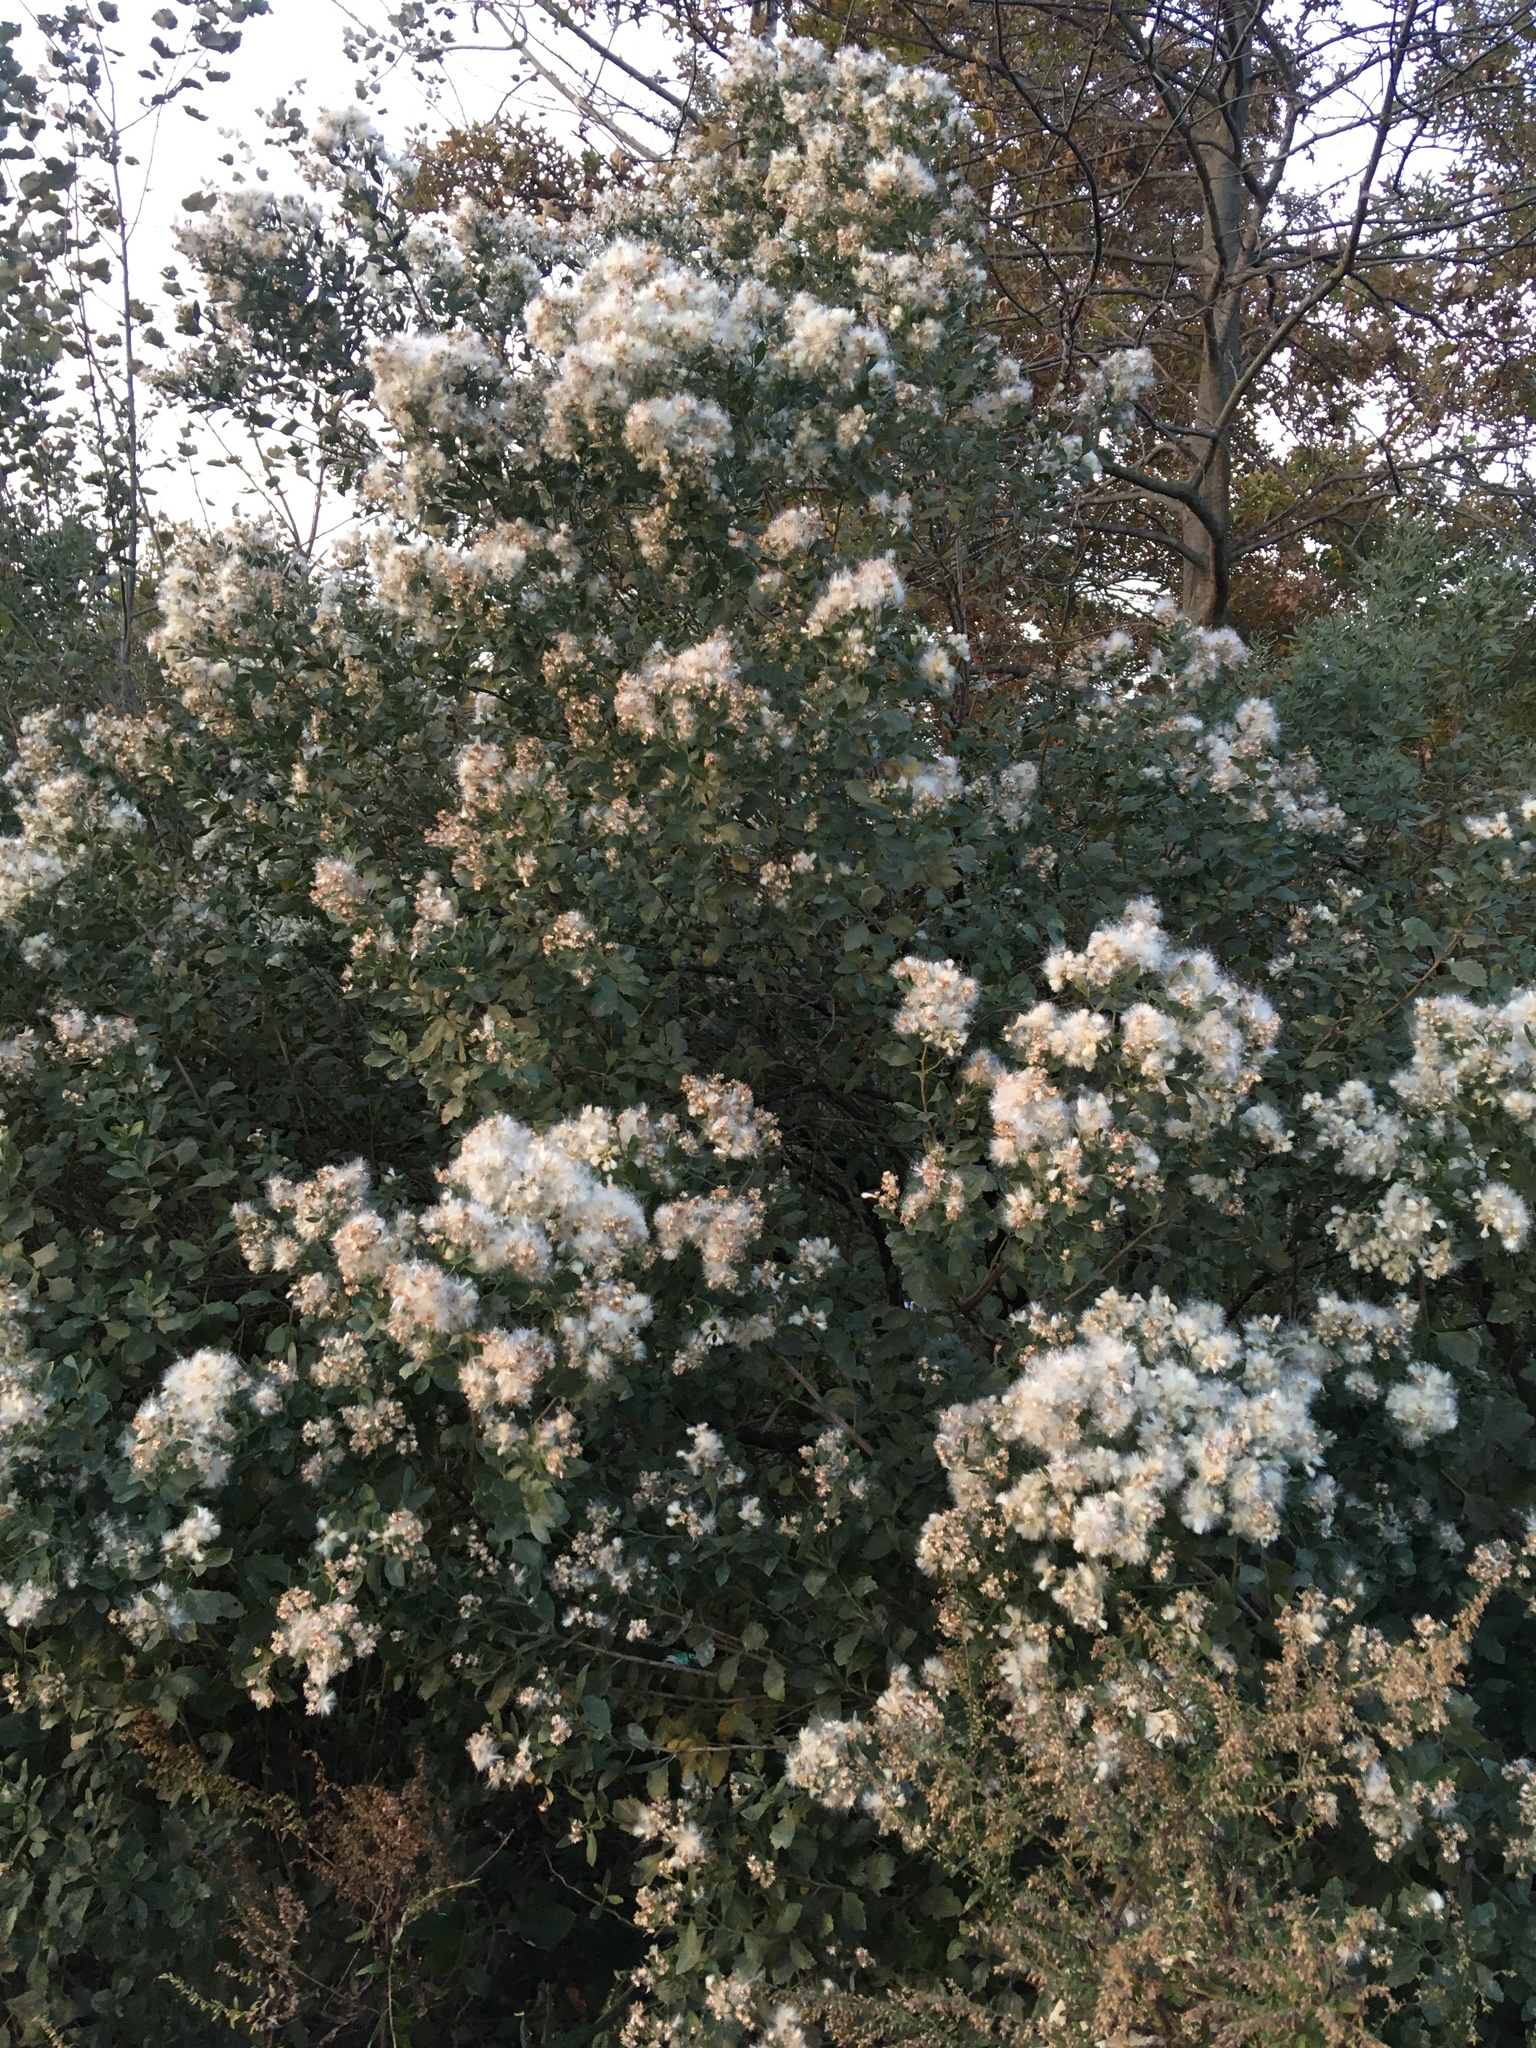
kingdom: Plantae
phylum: Tracheophyta
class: Magnoliopsida
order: Asterales
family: Asteraceae
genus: Baccharis
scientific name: Baccharis halimifolia
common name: Eastern baccharis
